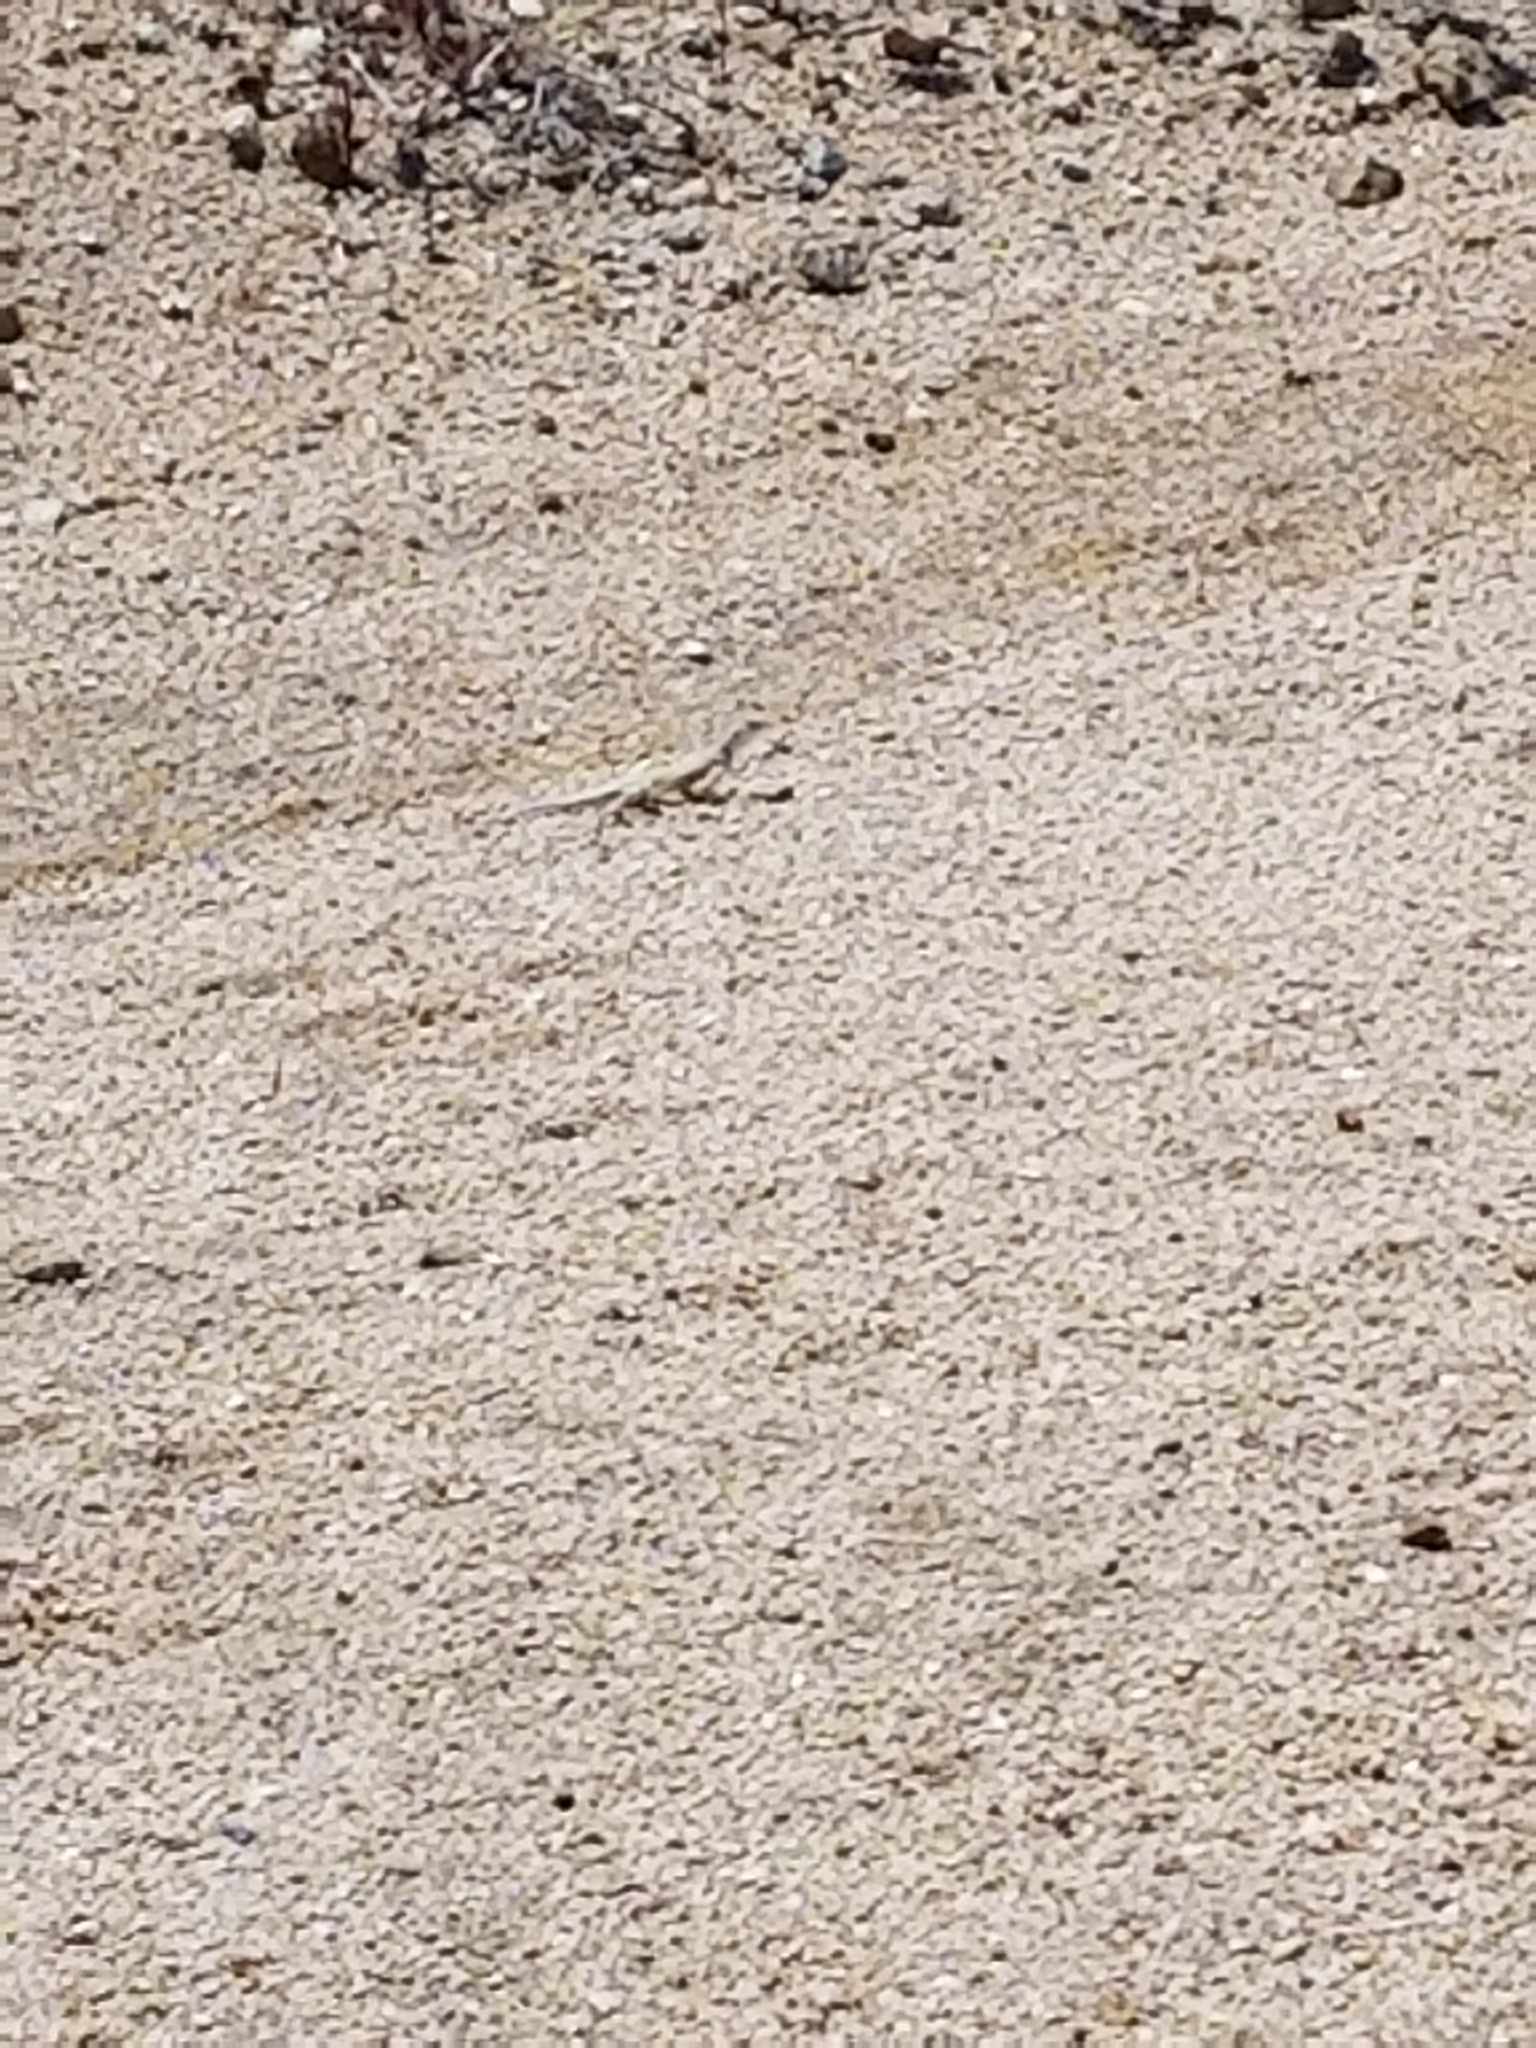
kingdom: Animalia
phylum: Chordata
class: Squamata
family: Phrynosomatidae
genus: Callisaurus
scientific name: Callisaurus draconoides
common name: Zebra-tailed lizard
